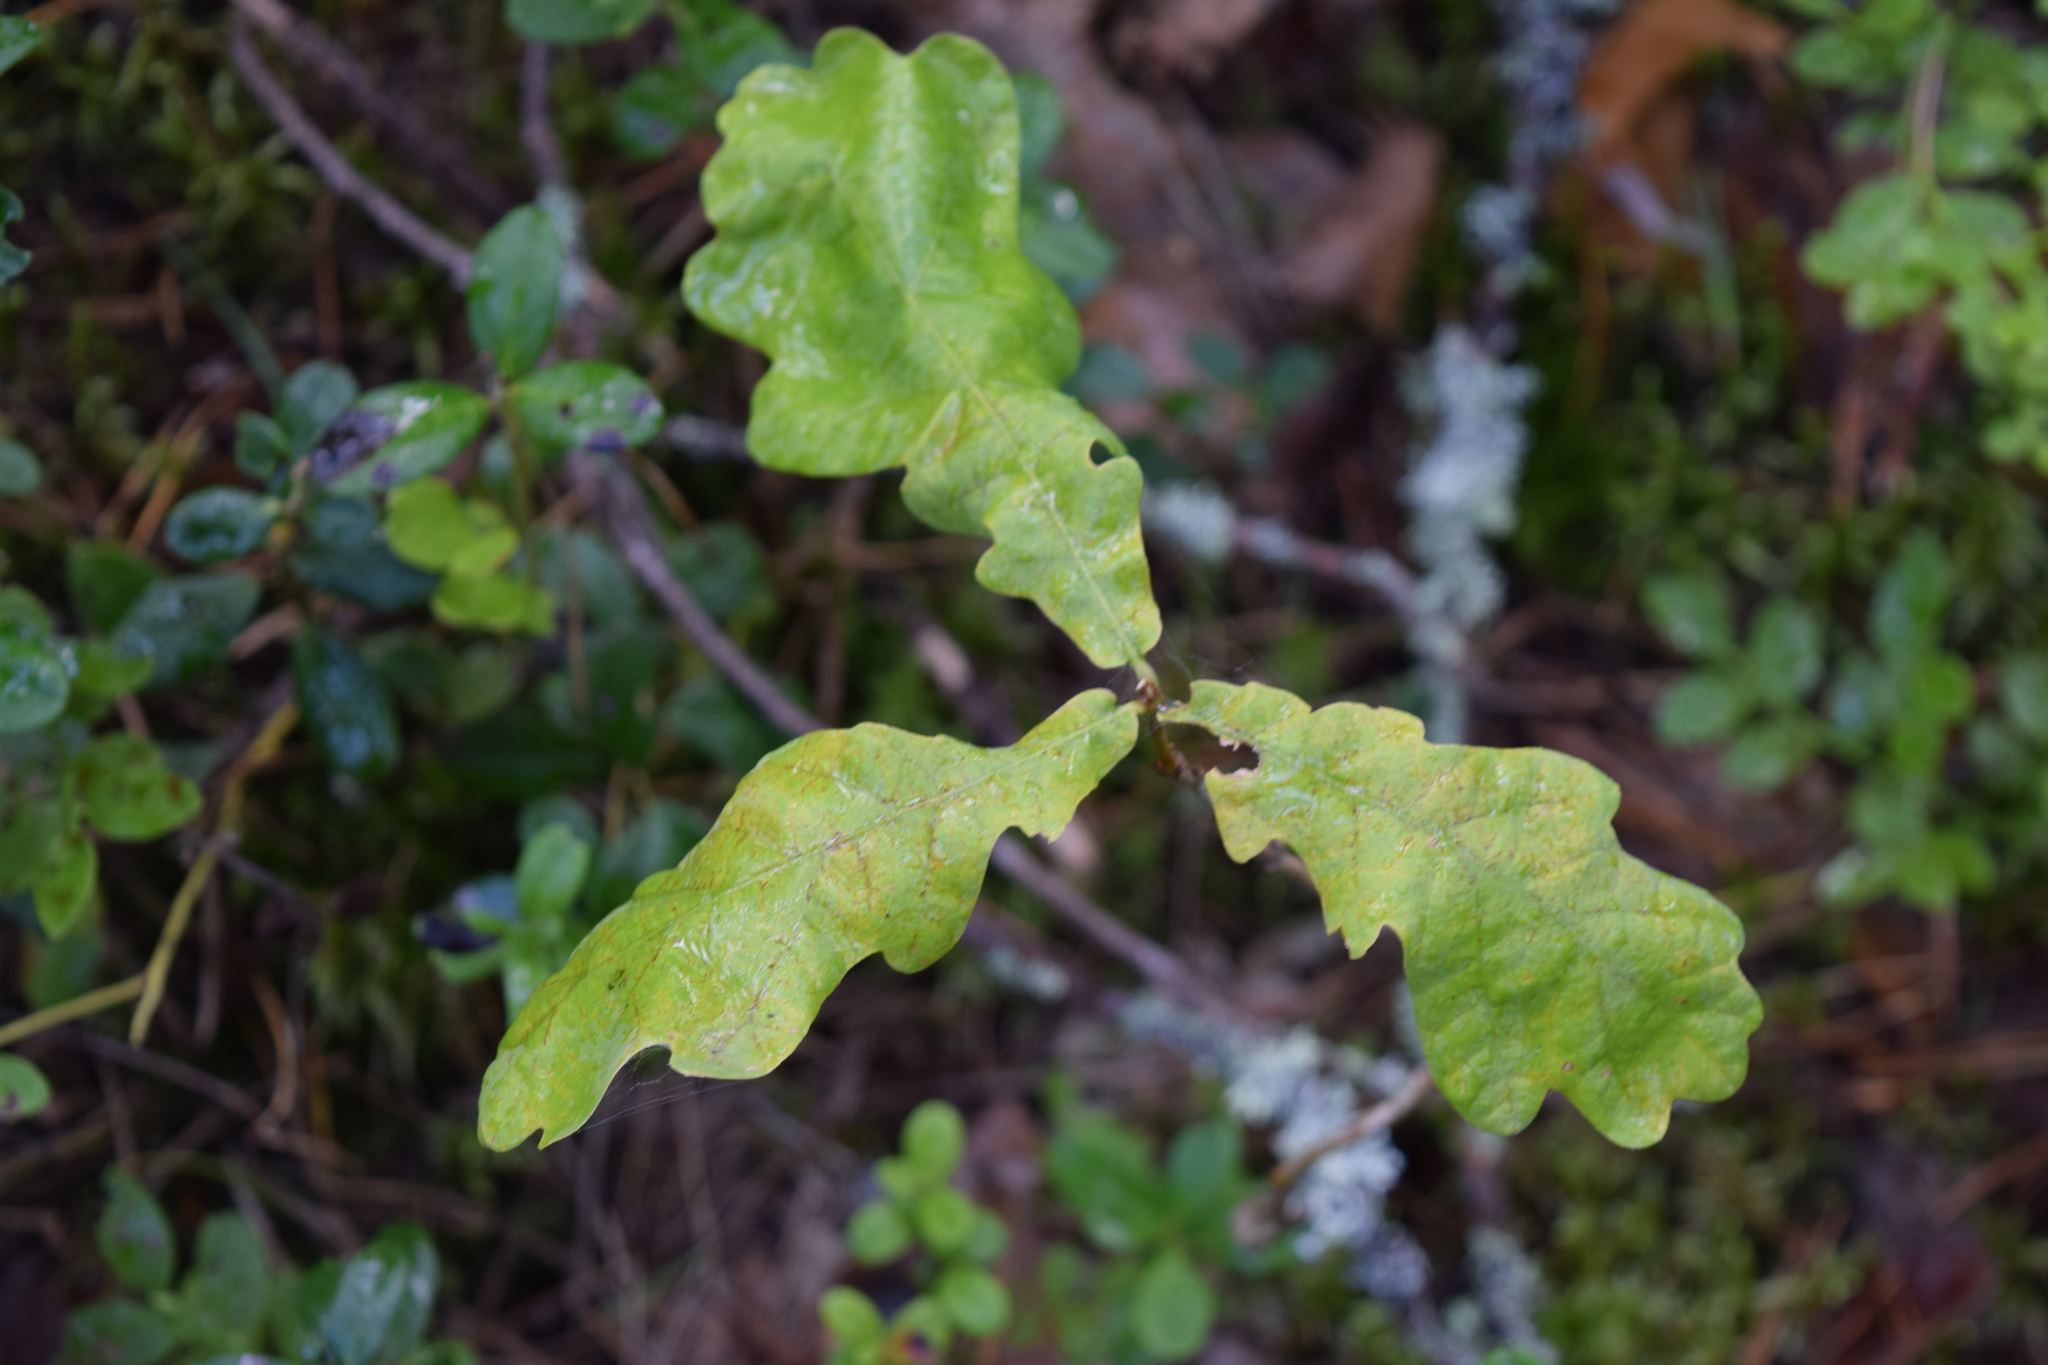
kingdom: Plantae
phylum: Tracheophyta
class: Magnoliopsida
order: Fagales
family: Fagaceae
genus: Quercus
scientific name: Quercus robur
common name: Pedunculate oak
